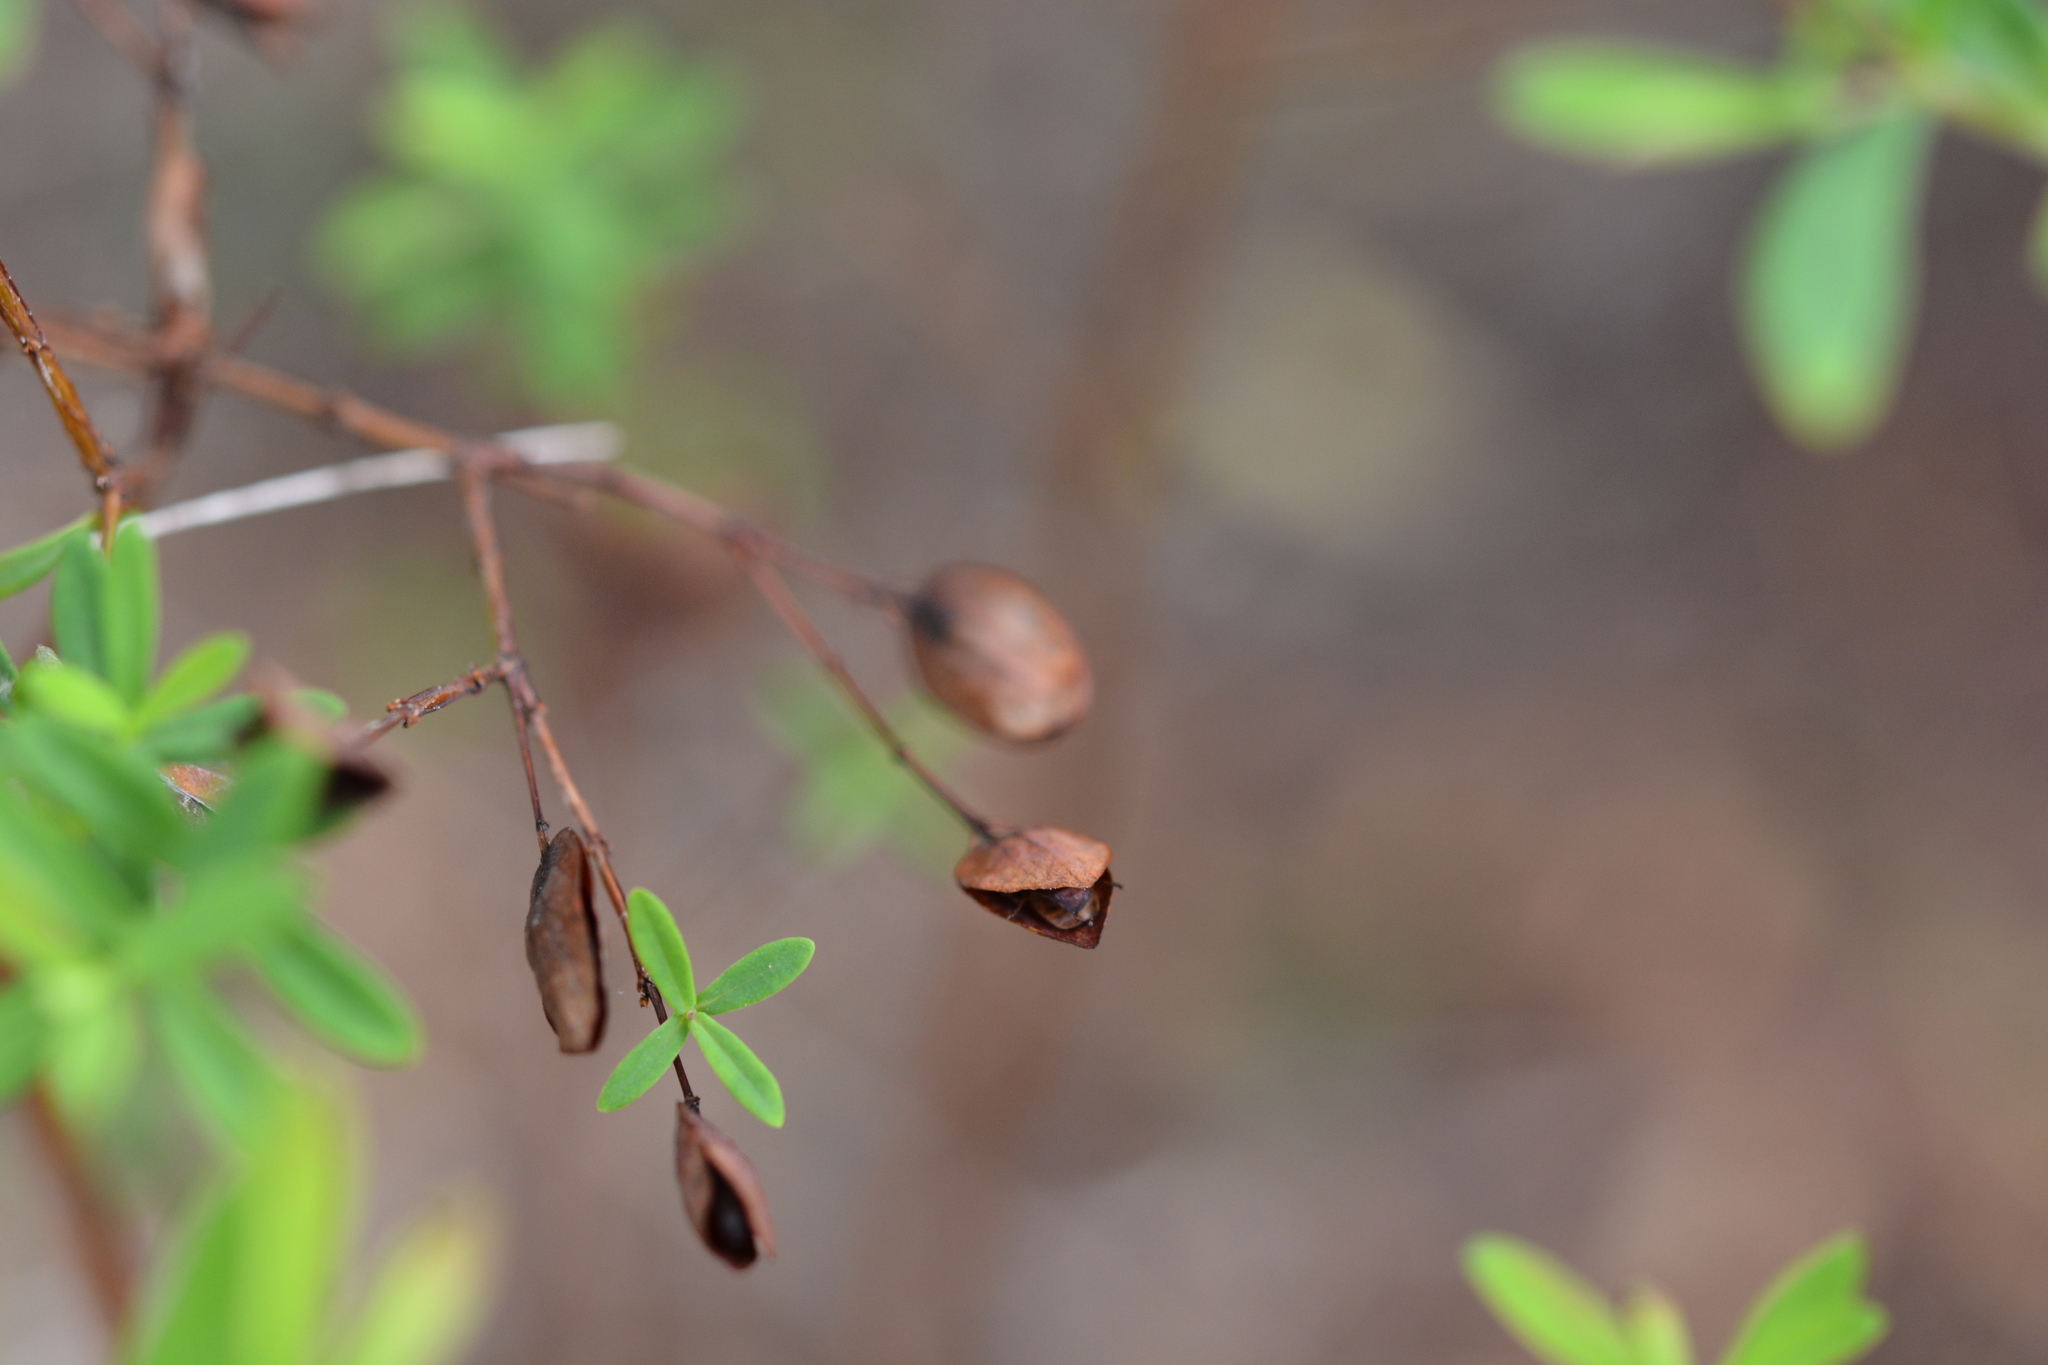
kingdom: Plantae
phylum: Tracheophyta
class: Magnoliopsida
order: Malpighiales
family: Hypericaceae
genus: Hypericum
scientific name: Hypericum hypericoides
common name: St. andrew's cross
